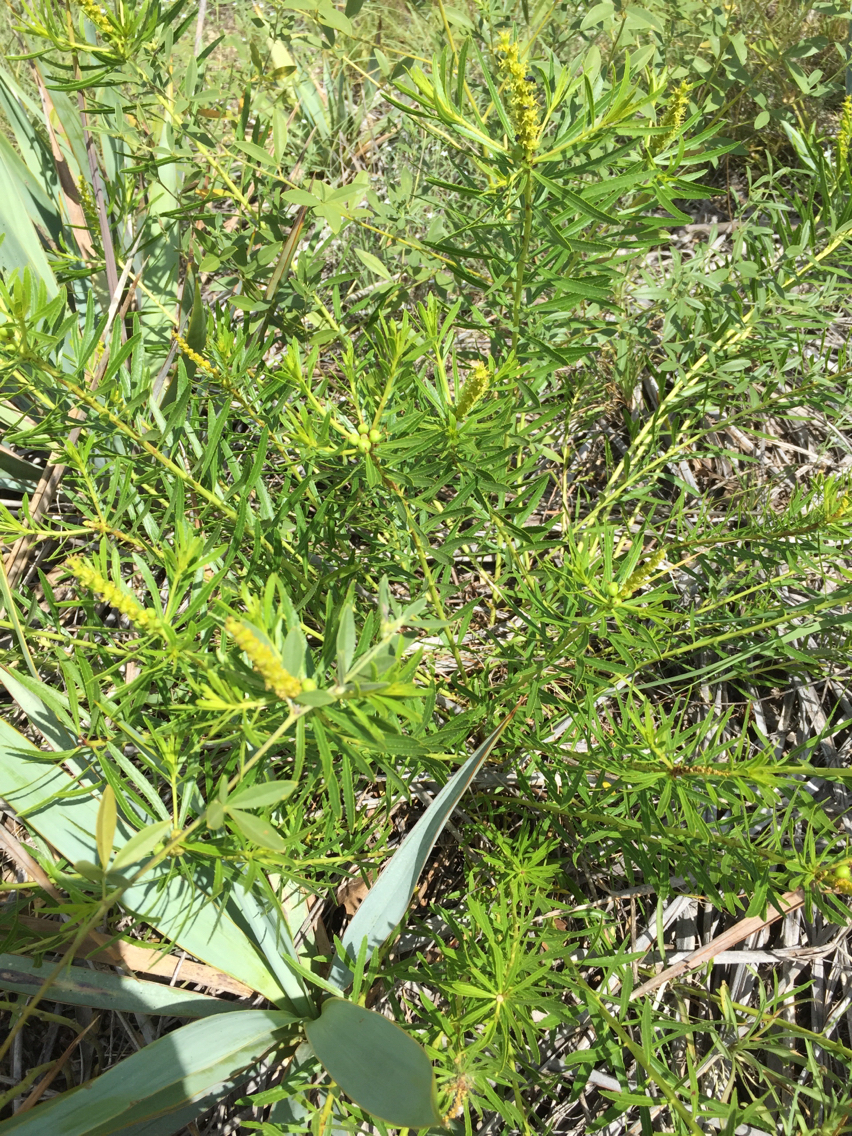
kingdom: Plantae
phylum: Tracheophyta
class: Magnoliopsida
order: Malpighiales
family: Euphorbiaceae
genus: Stillingia
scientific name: Stillingia texana
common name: Texas stillingia
